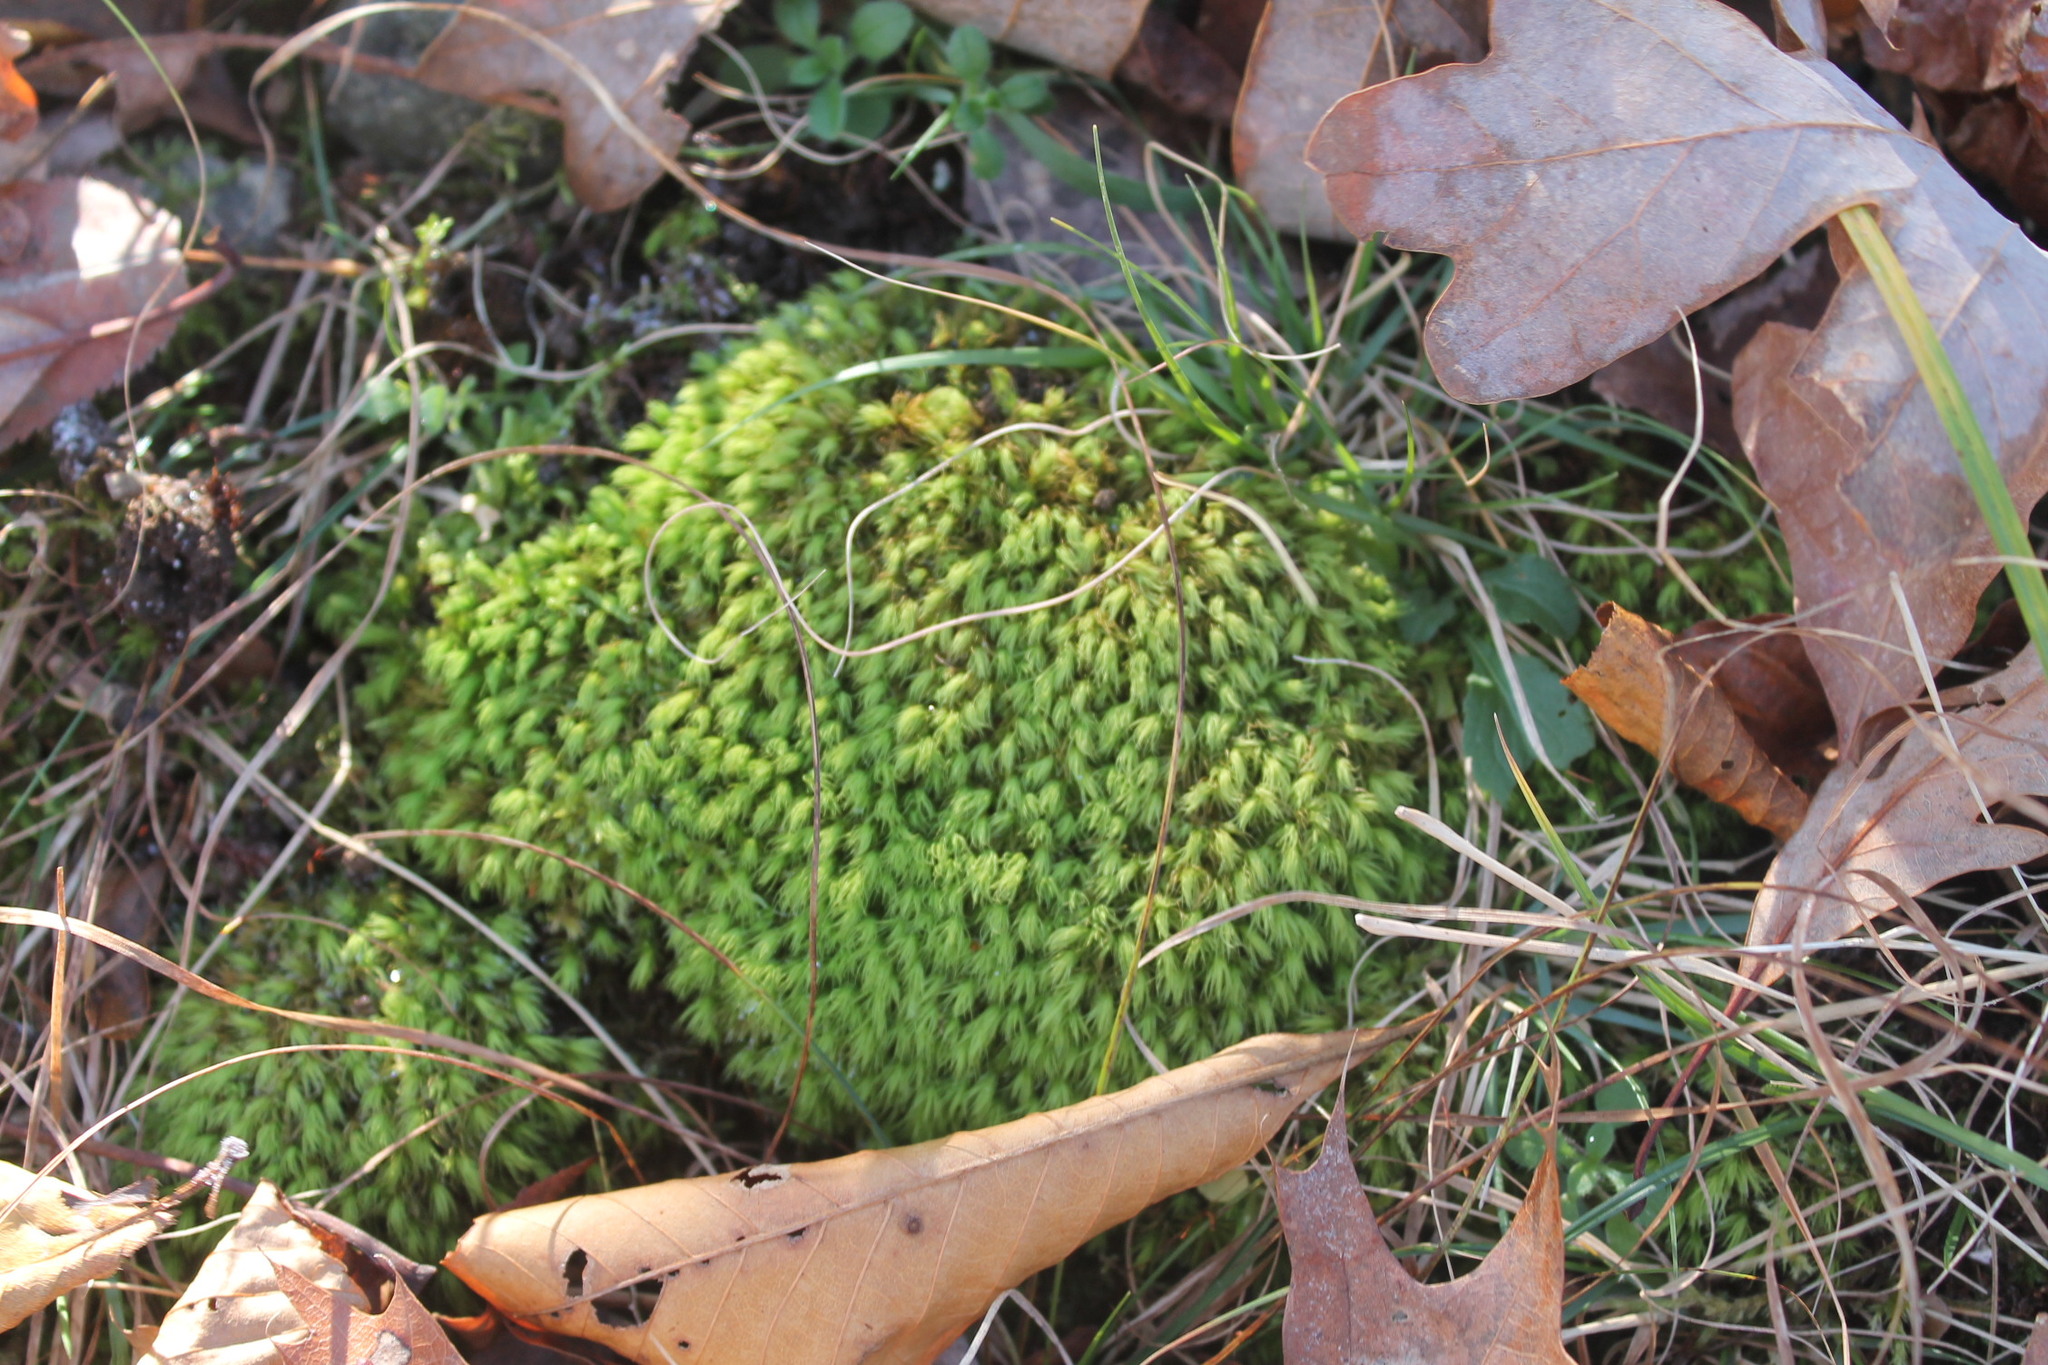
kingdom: Plantae
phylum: Bryophyta
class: Bryopsida
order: Bartramiales
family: Bartramiaceae
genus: Bartramia
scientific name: Bartramia ithyphylla
